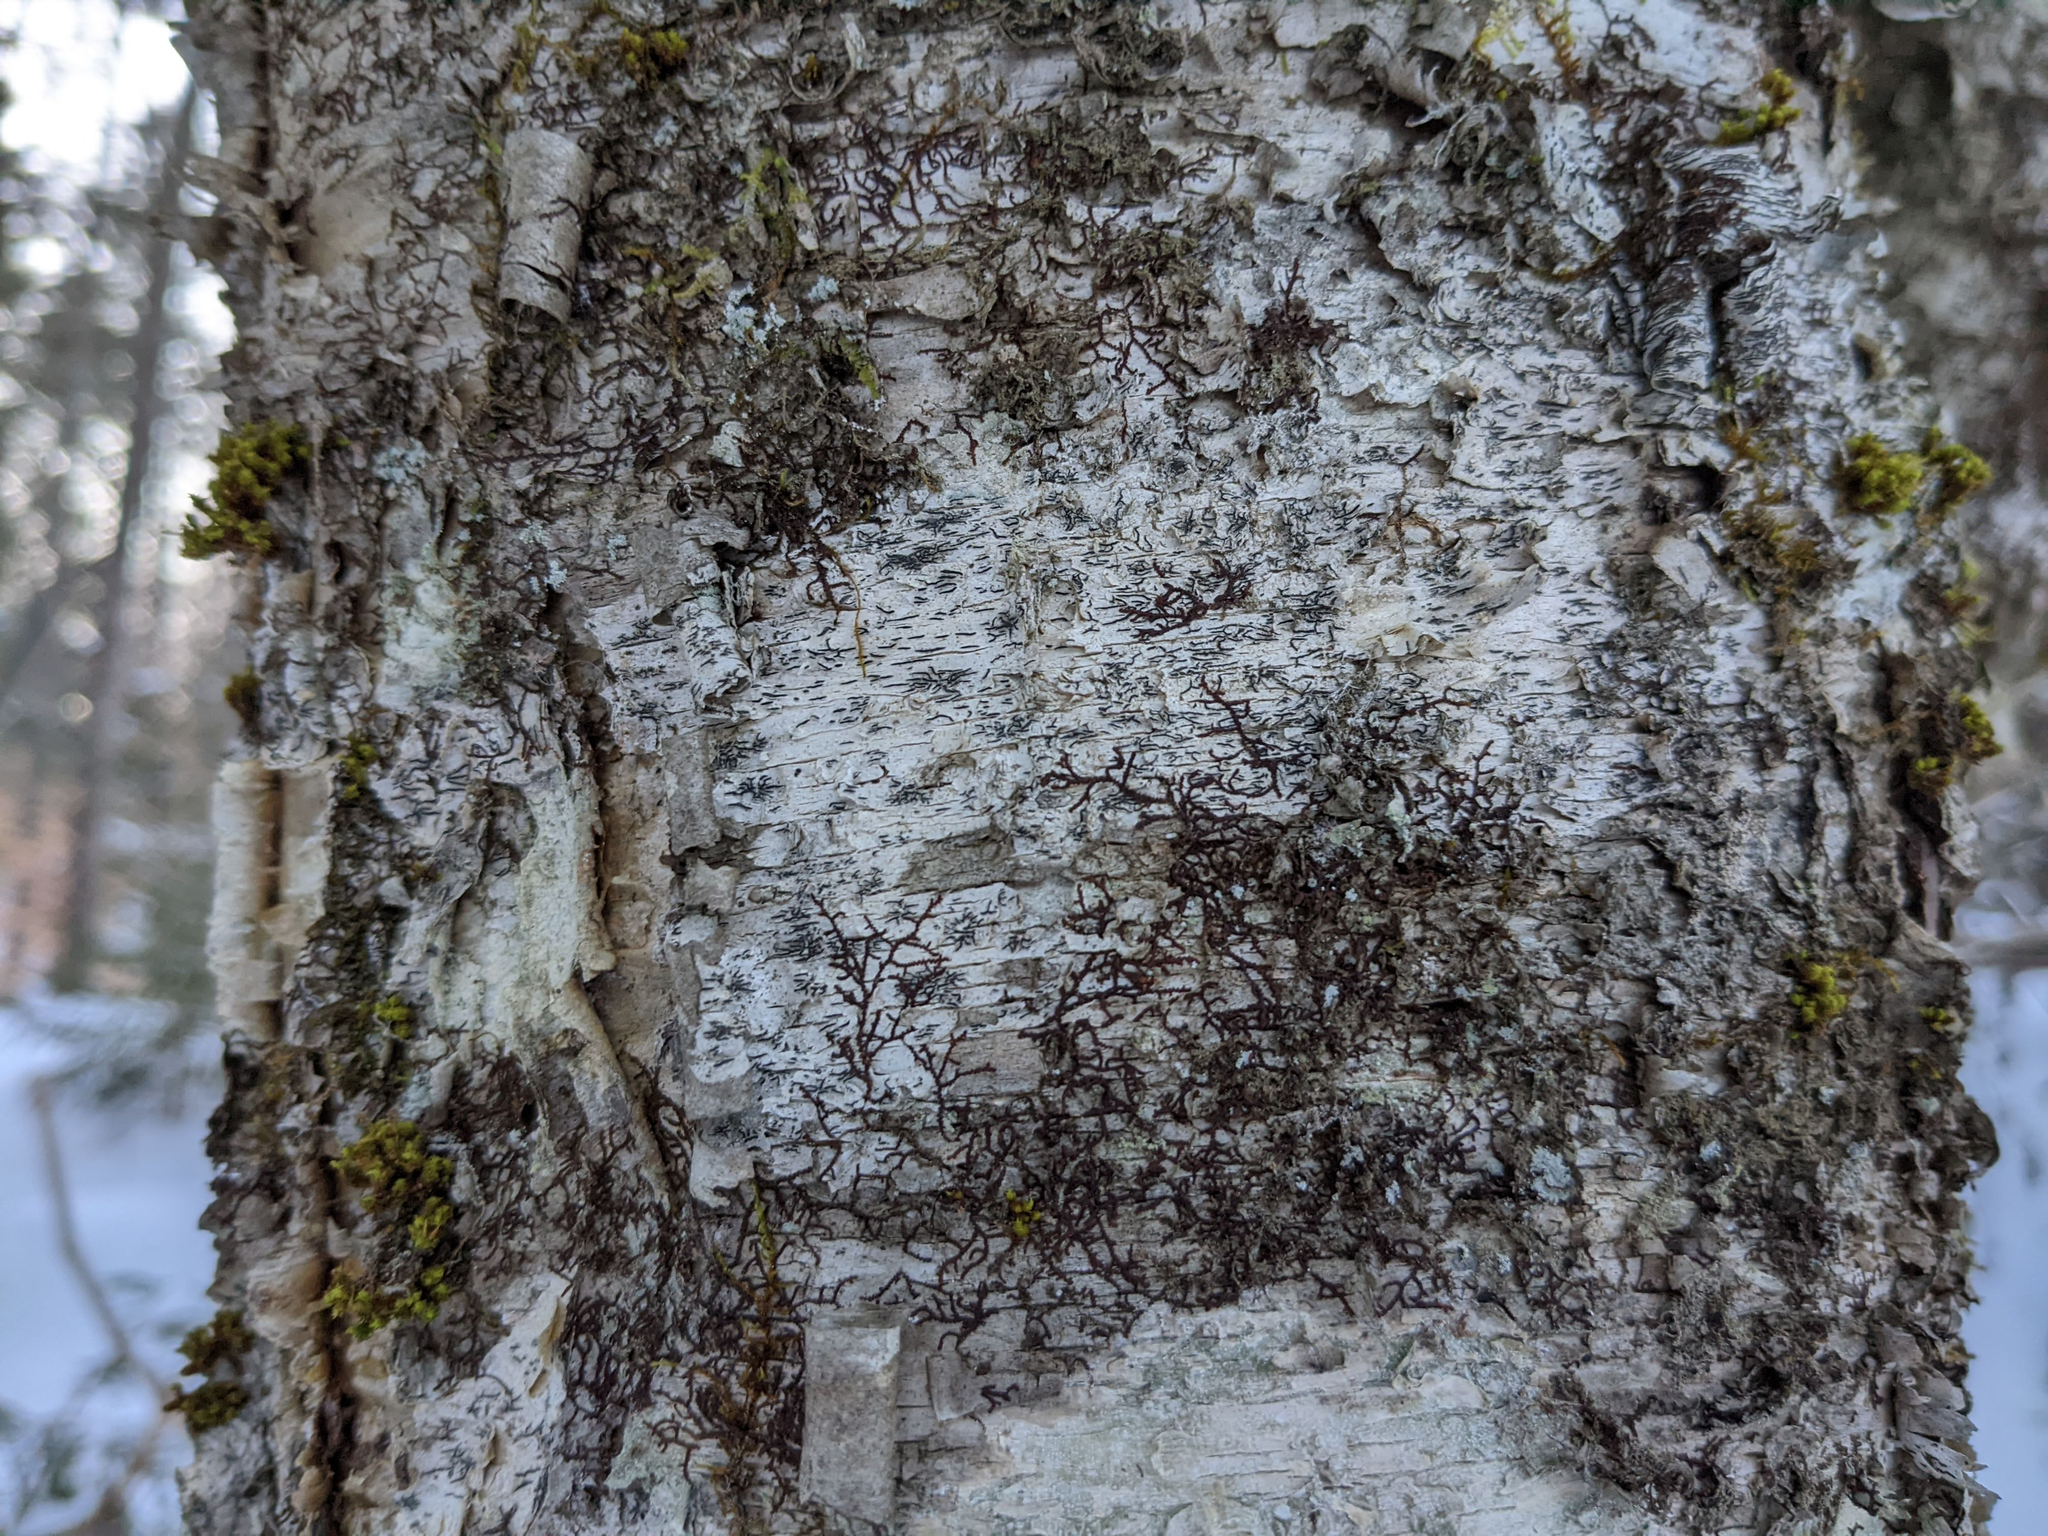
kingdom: Fungi
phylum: Ascomycota
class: Lecanoromycetes
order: Ostropales
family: Graphidaceae
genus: Graphis
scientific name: Graphis scripta
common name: Script lichen
